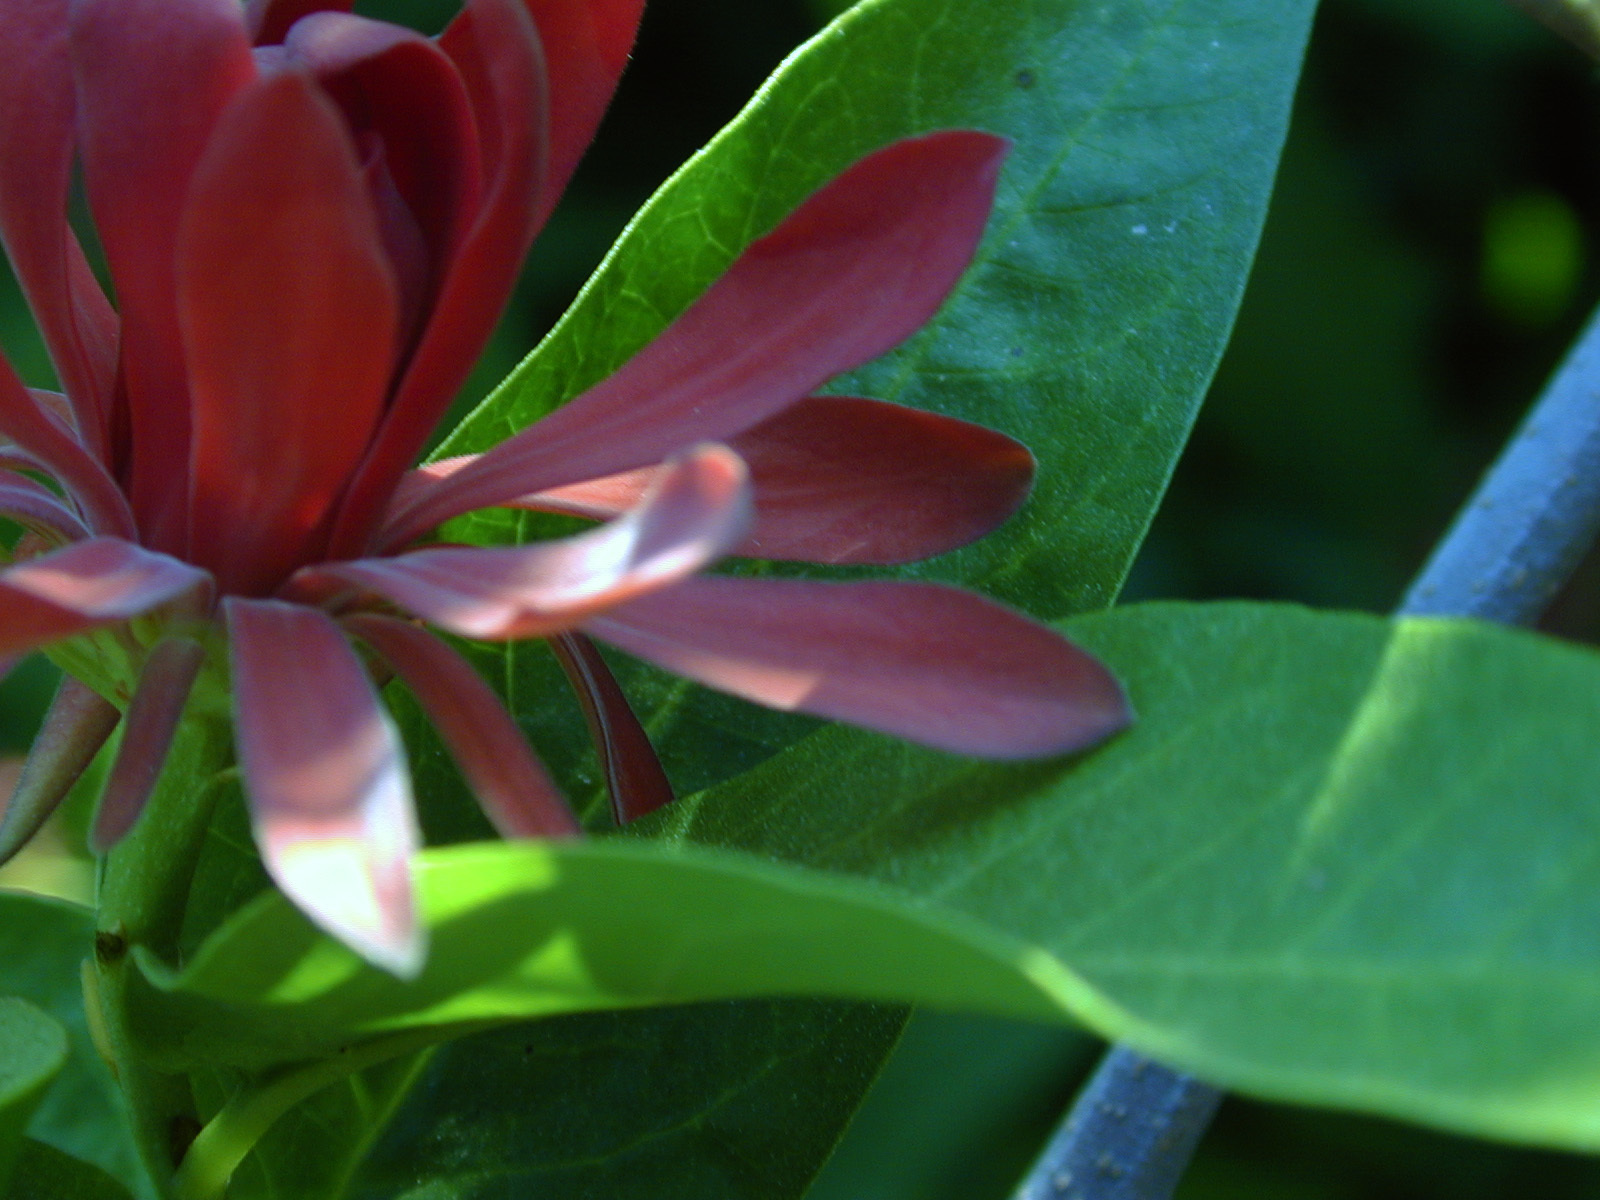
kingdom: Plantae
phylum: Tracheophyta
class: Magnoliopsida
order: Laurales
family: Calycanthaceae
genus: Calycanthus
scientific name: Calycanthus occidentalis
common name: California spicebush
